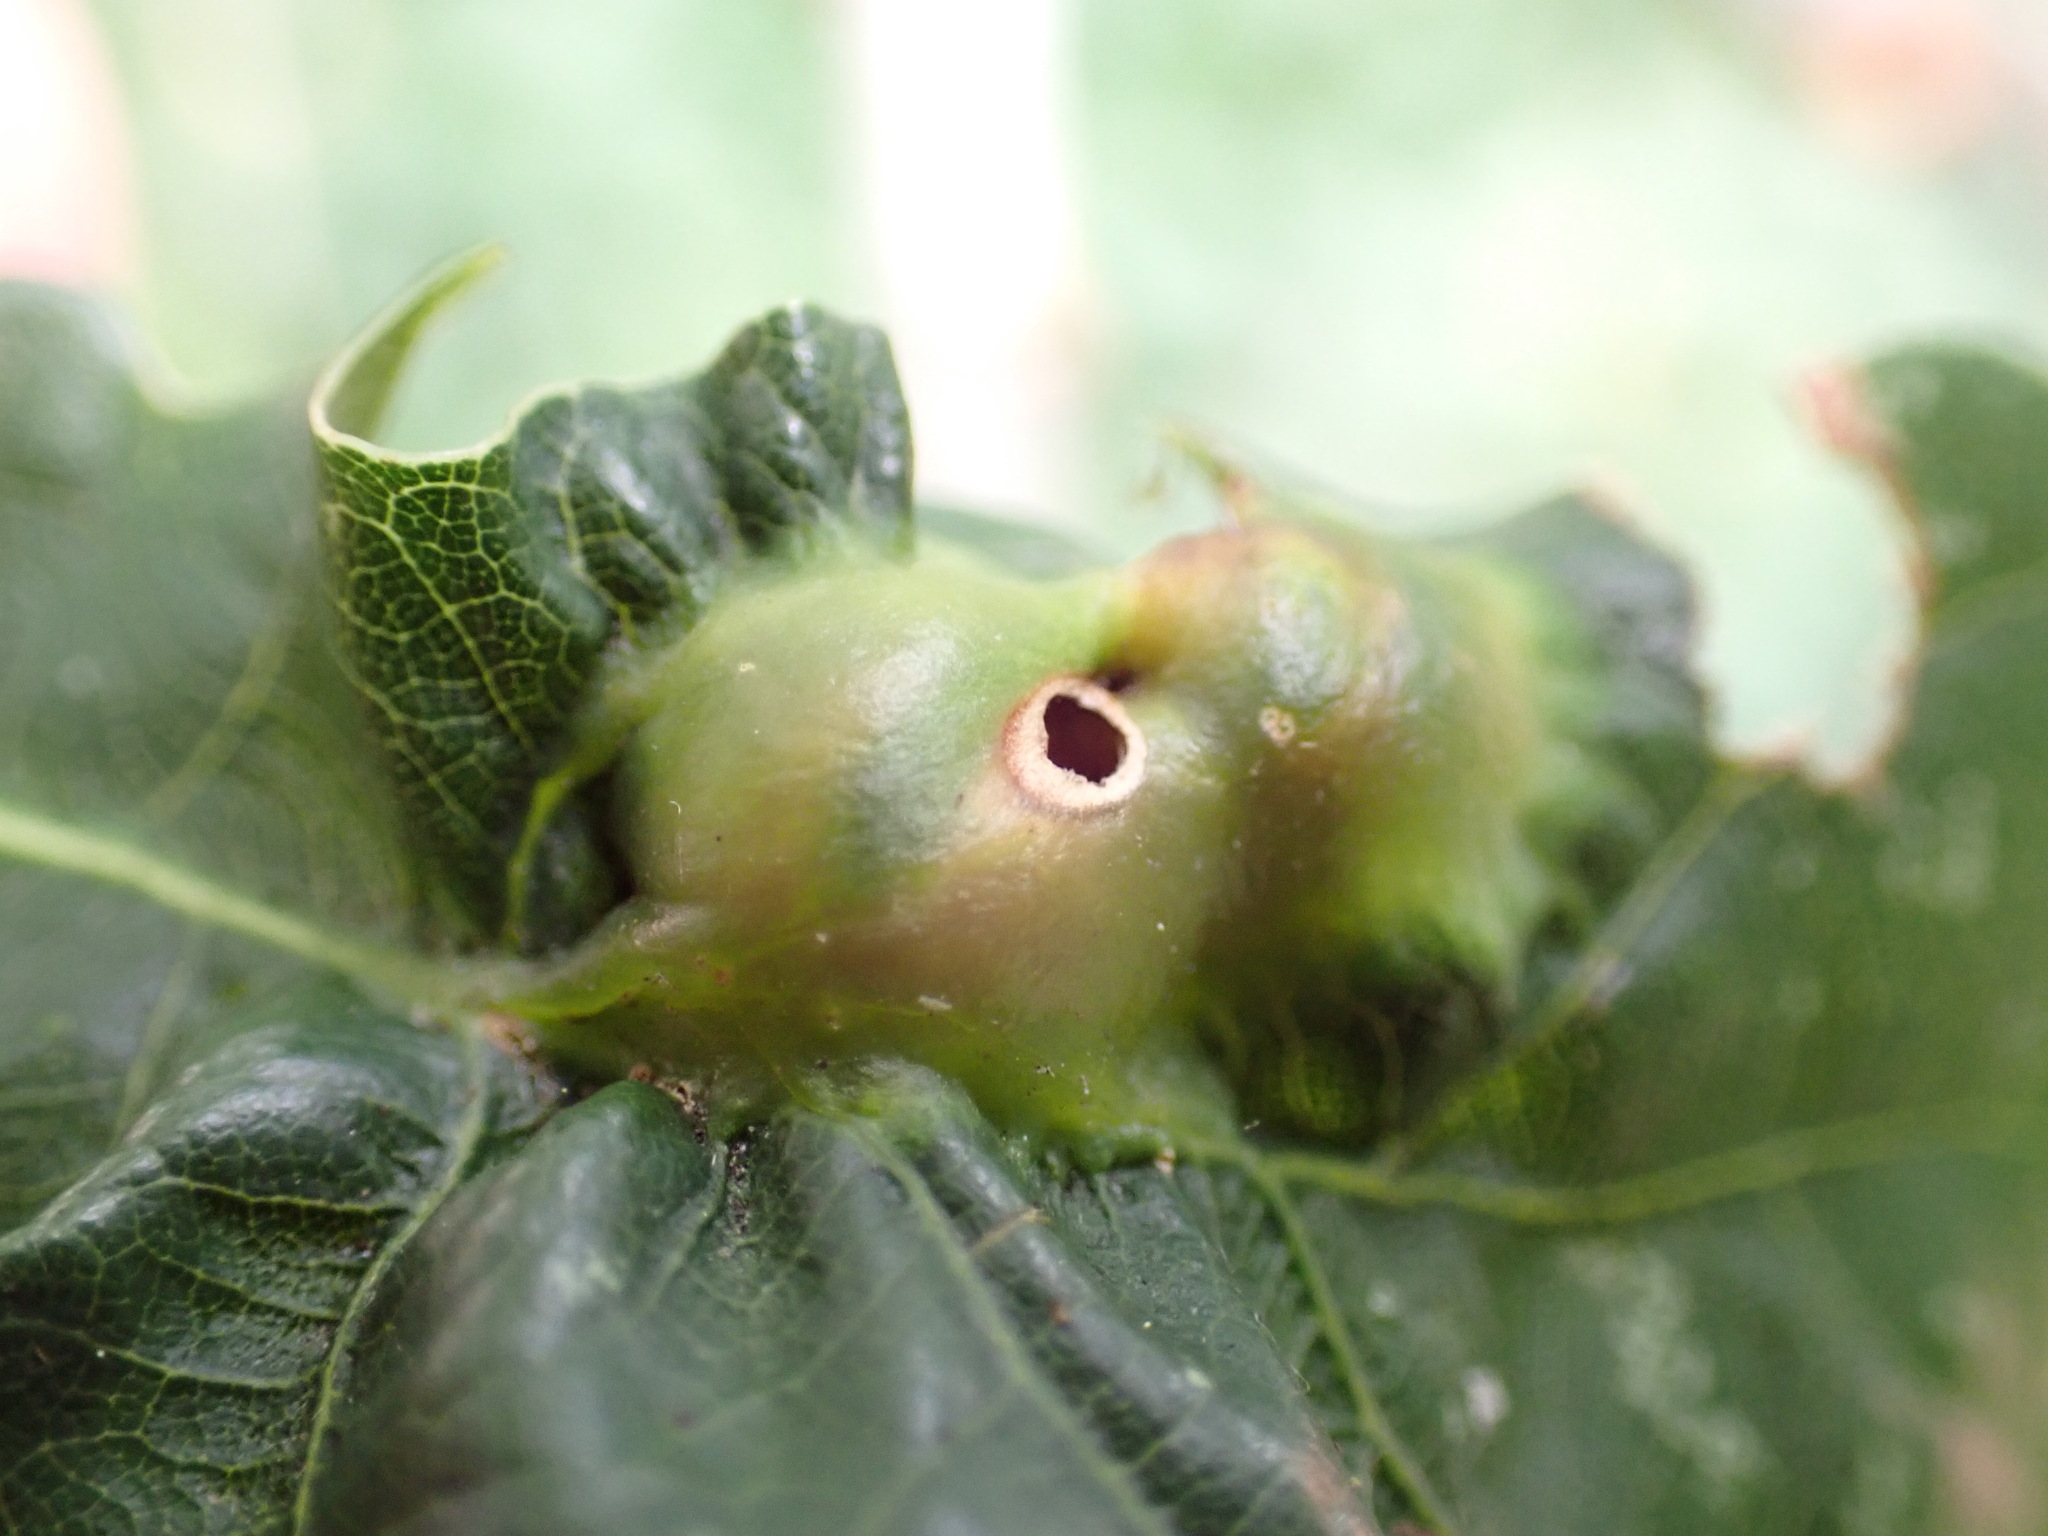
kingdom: Animalia
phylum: Arthropoda
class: Insecta
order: Hymenoptera
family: Cynipidae
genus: Andricus
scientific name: Andricus curvator
